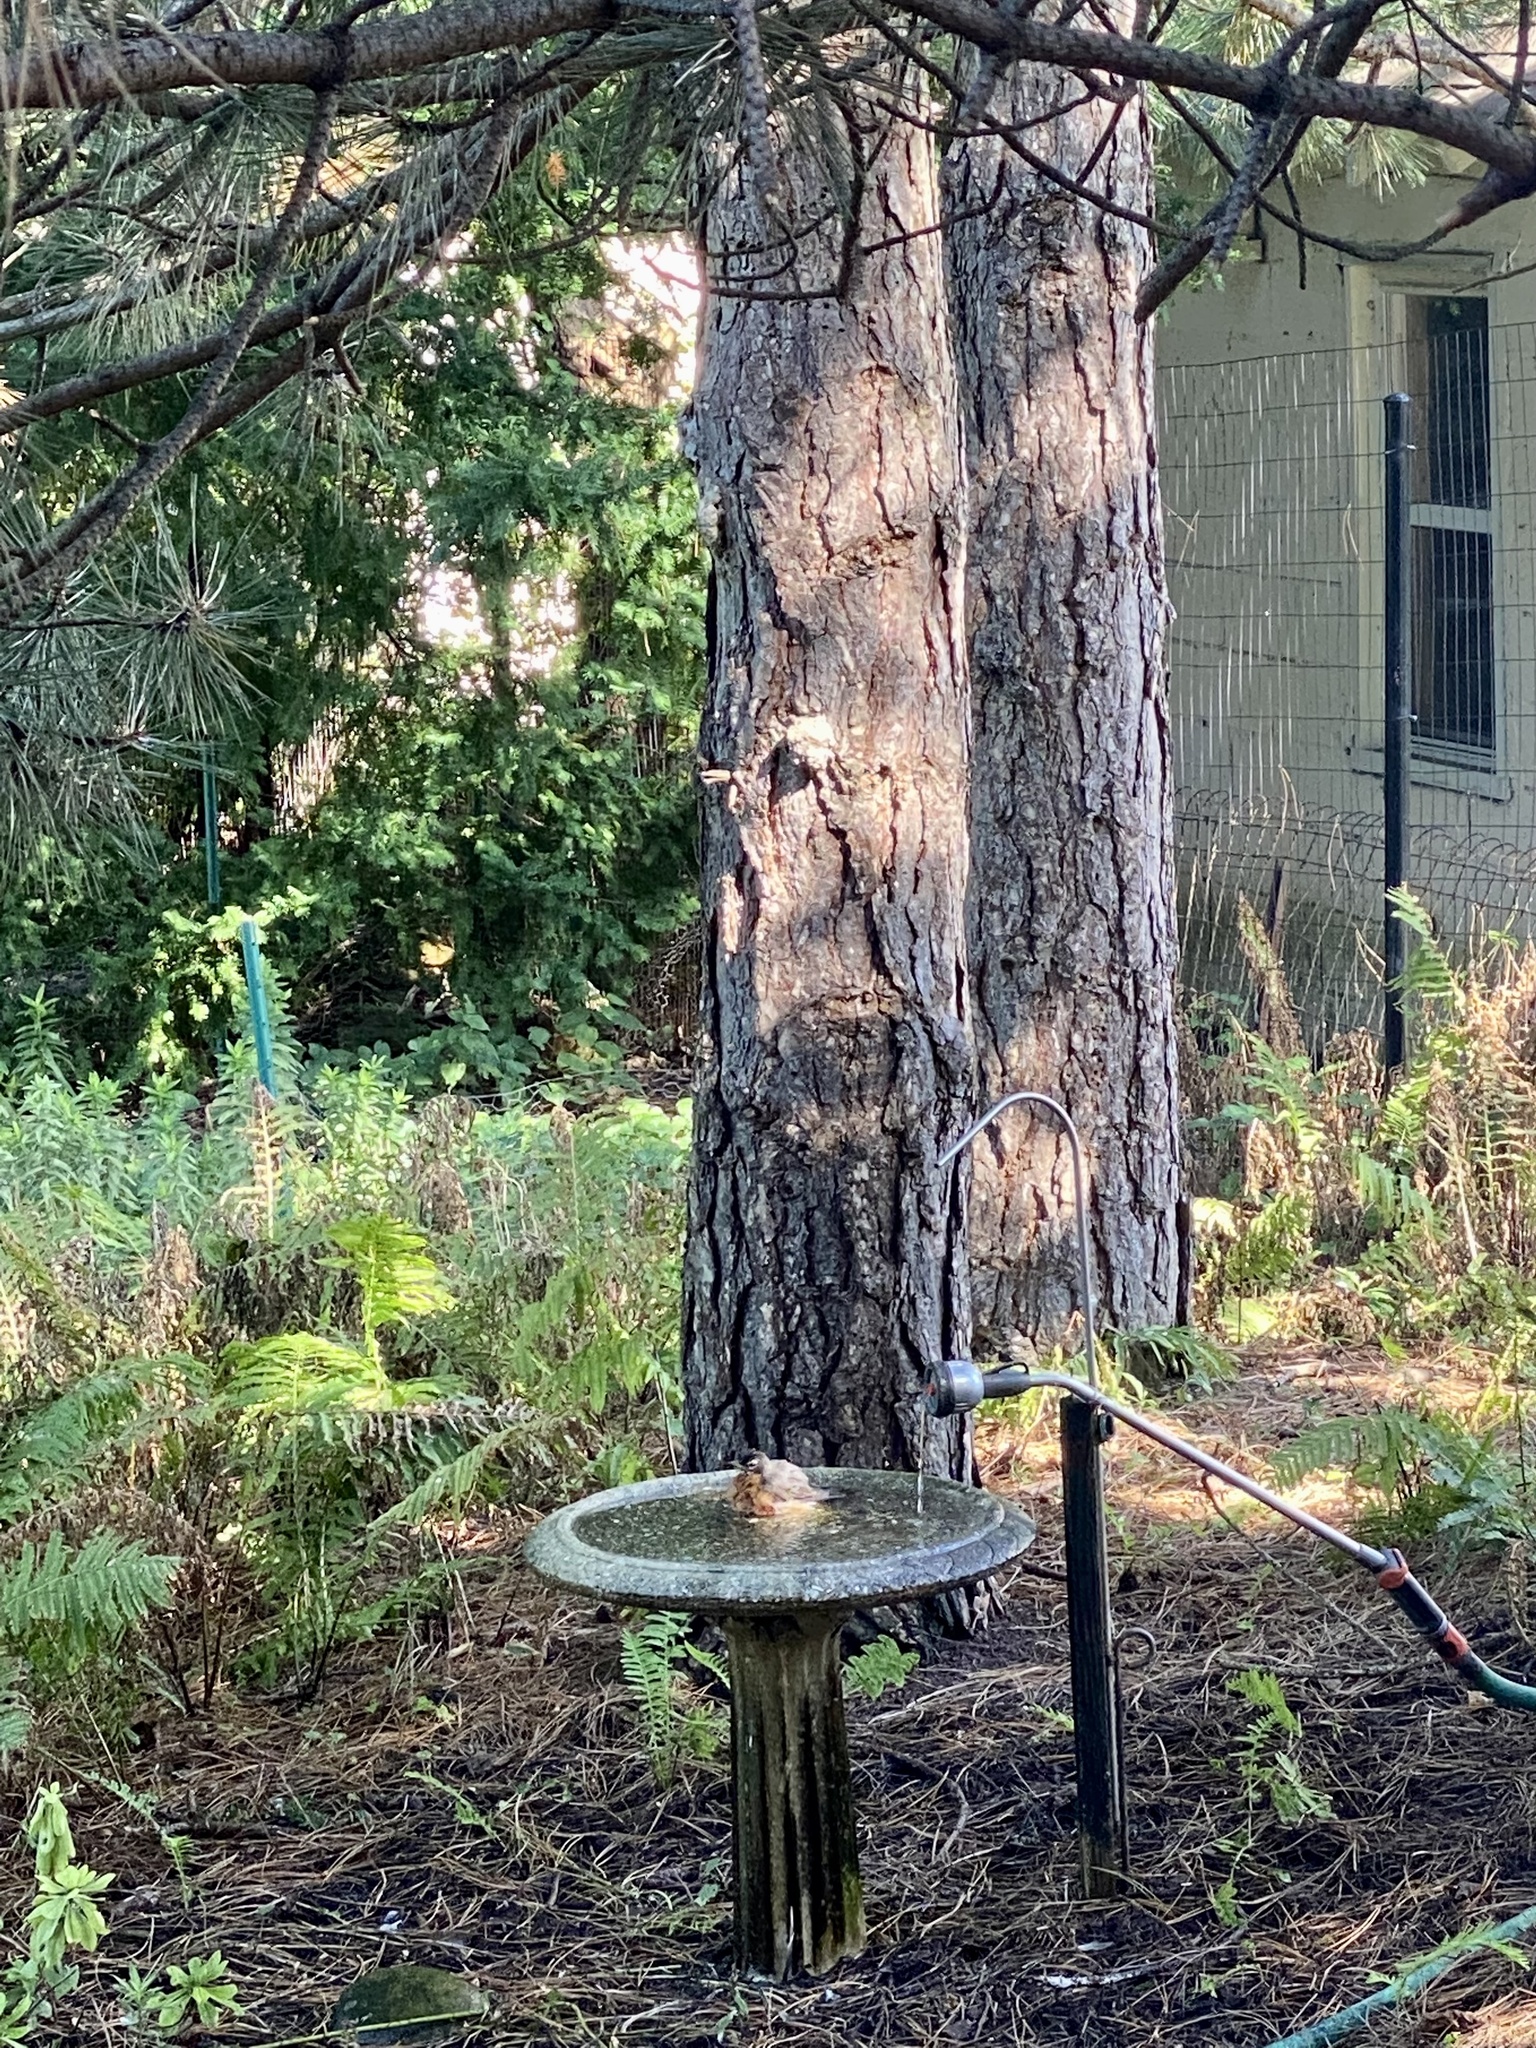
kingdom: Animalia
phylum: Chordata
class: Aves
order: Passeriformes
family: Turdidae
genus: Turdus
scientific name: Turdus migratorius
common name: American robin
